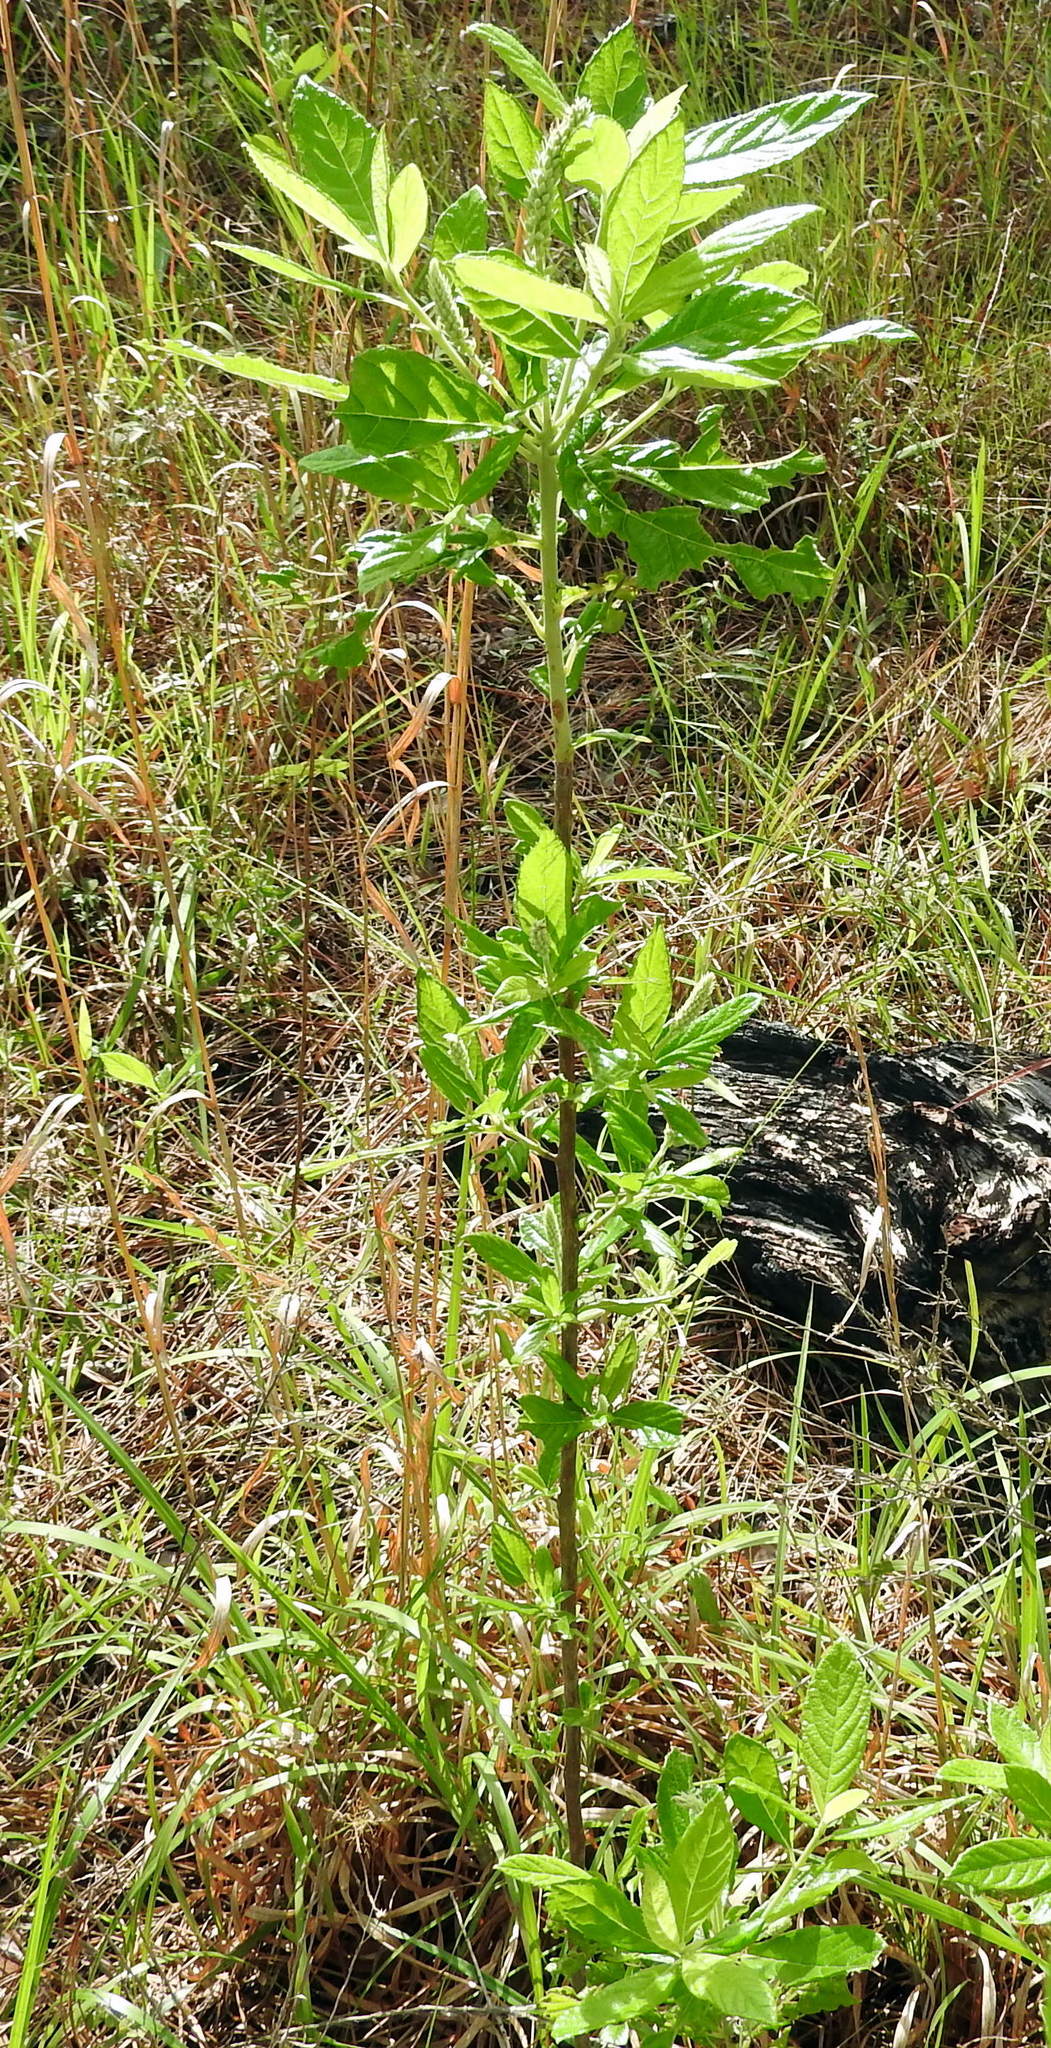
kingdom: Plantae
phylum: Tracheophyta
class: Magnoliopsida
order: Ericales
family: Clethraceae
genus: Clethra
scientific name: Clethra alnifolia
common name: Sweet pepperbush
